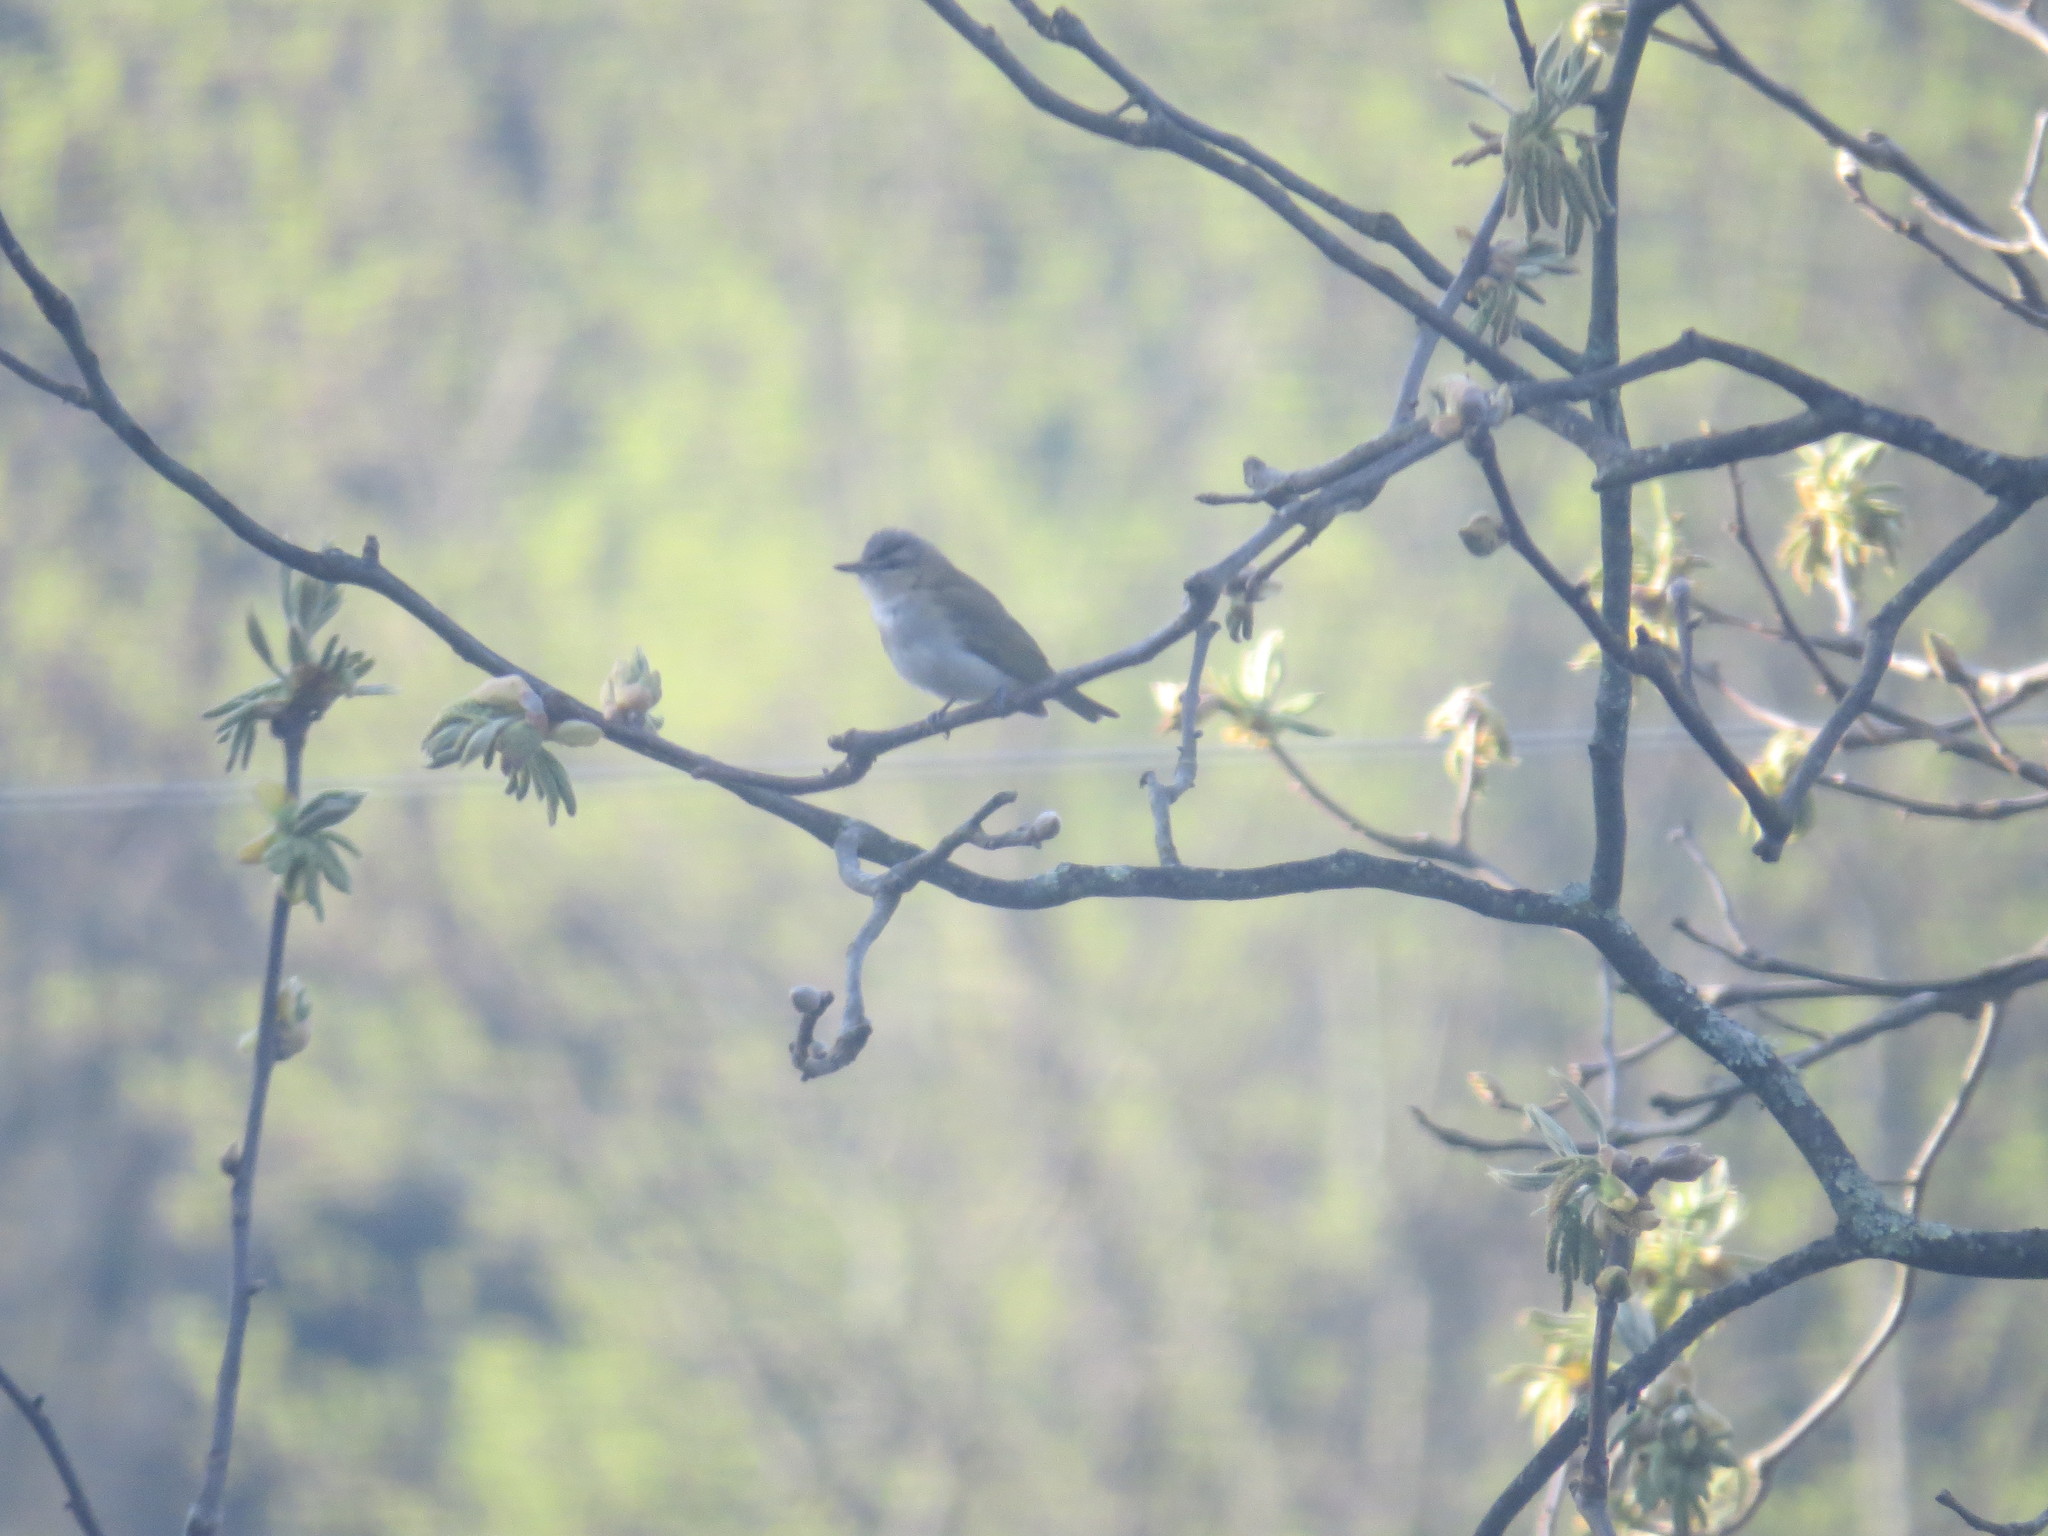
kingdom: Animalia
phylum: Chordata
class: Aves
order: Passeriformes
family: Vireonidae
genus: Vireo
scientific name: Vireo olivaceus
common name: Red-eyed vireo
